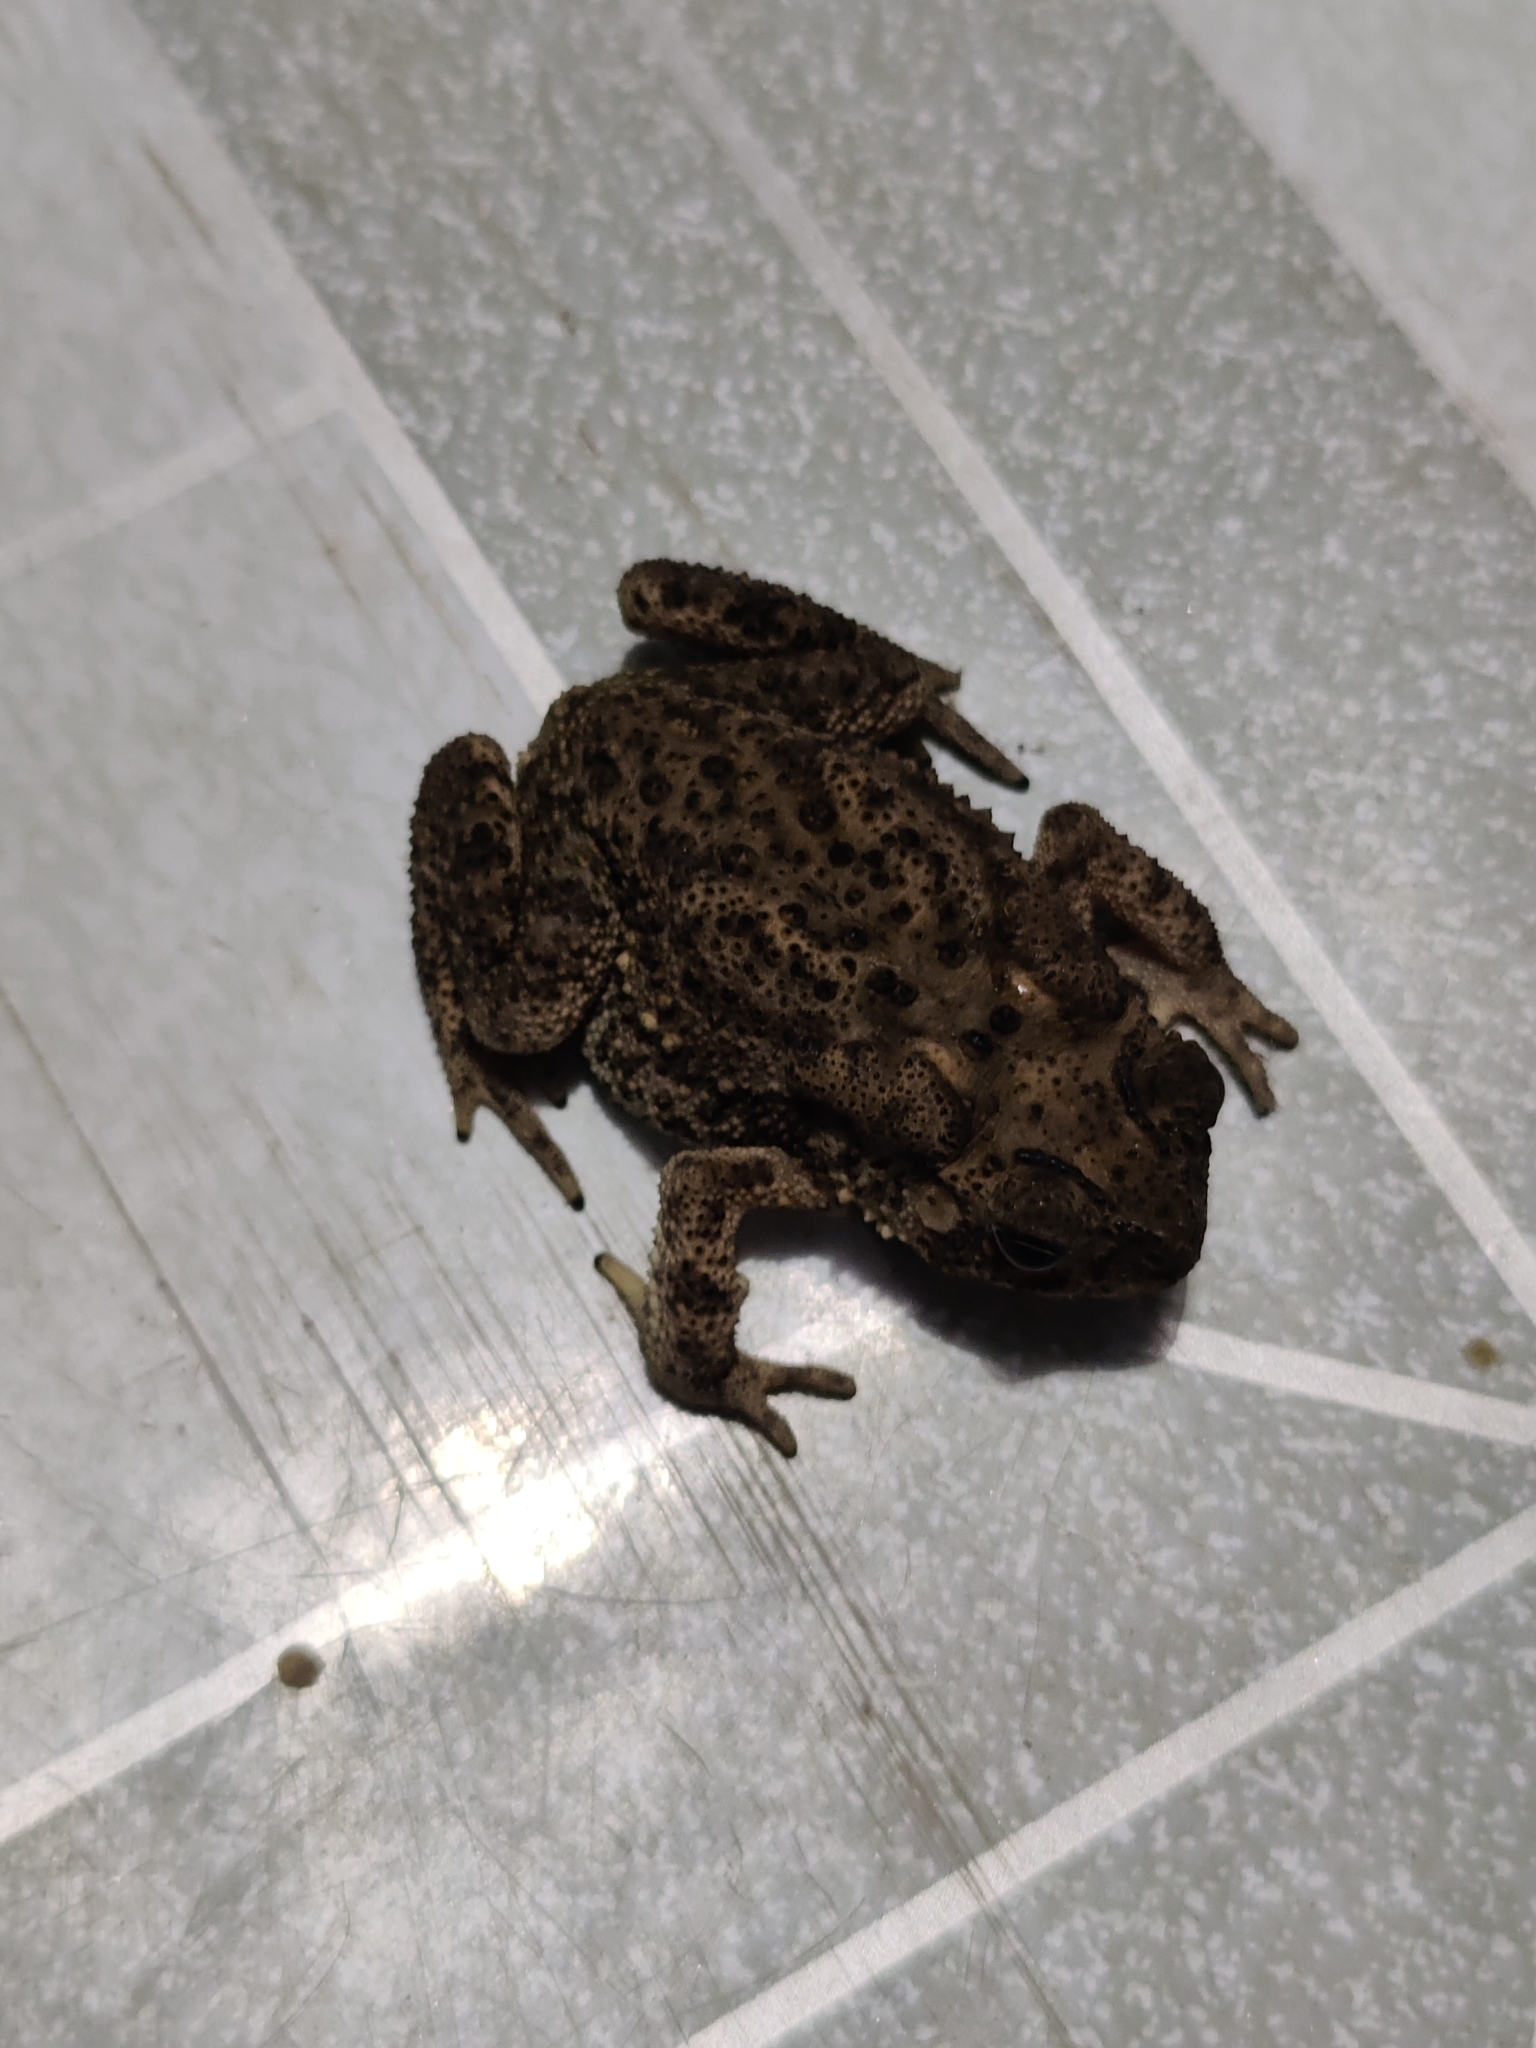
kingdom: Animalia
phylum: Chordata
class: Amphibia
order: Anura
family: Bufonidae
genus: Duttaphrynus
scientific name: Duttaphrynus melanostictus
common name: Common sunda toad
